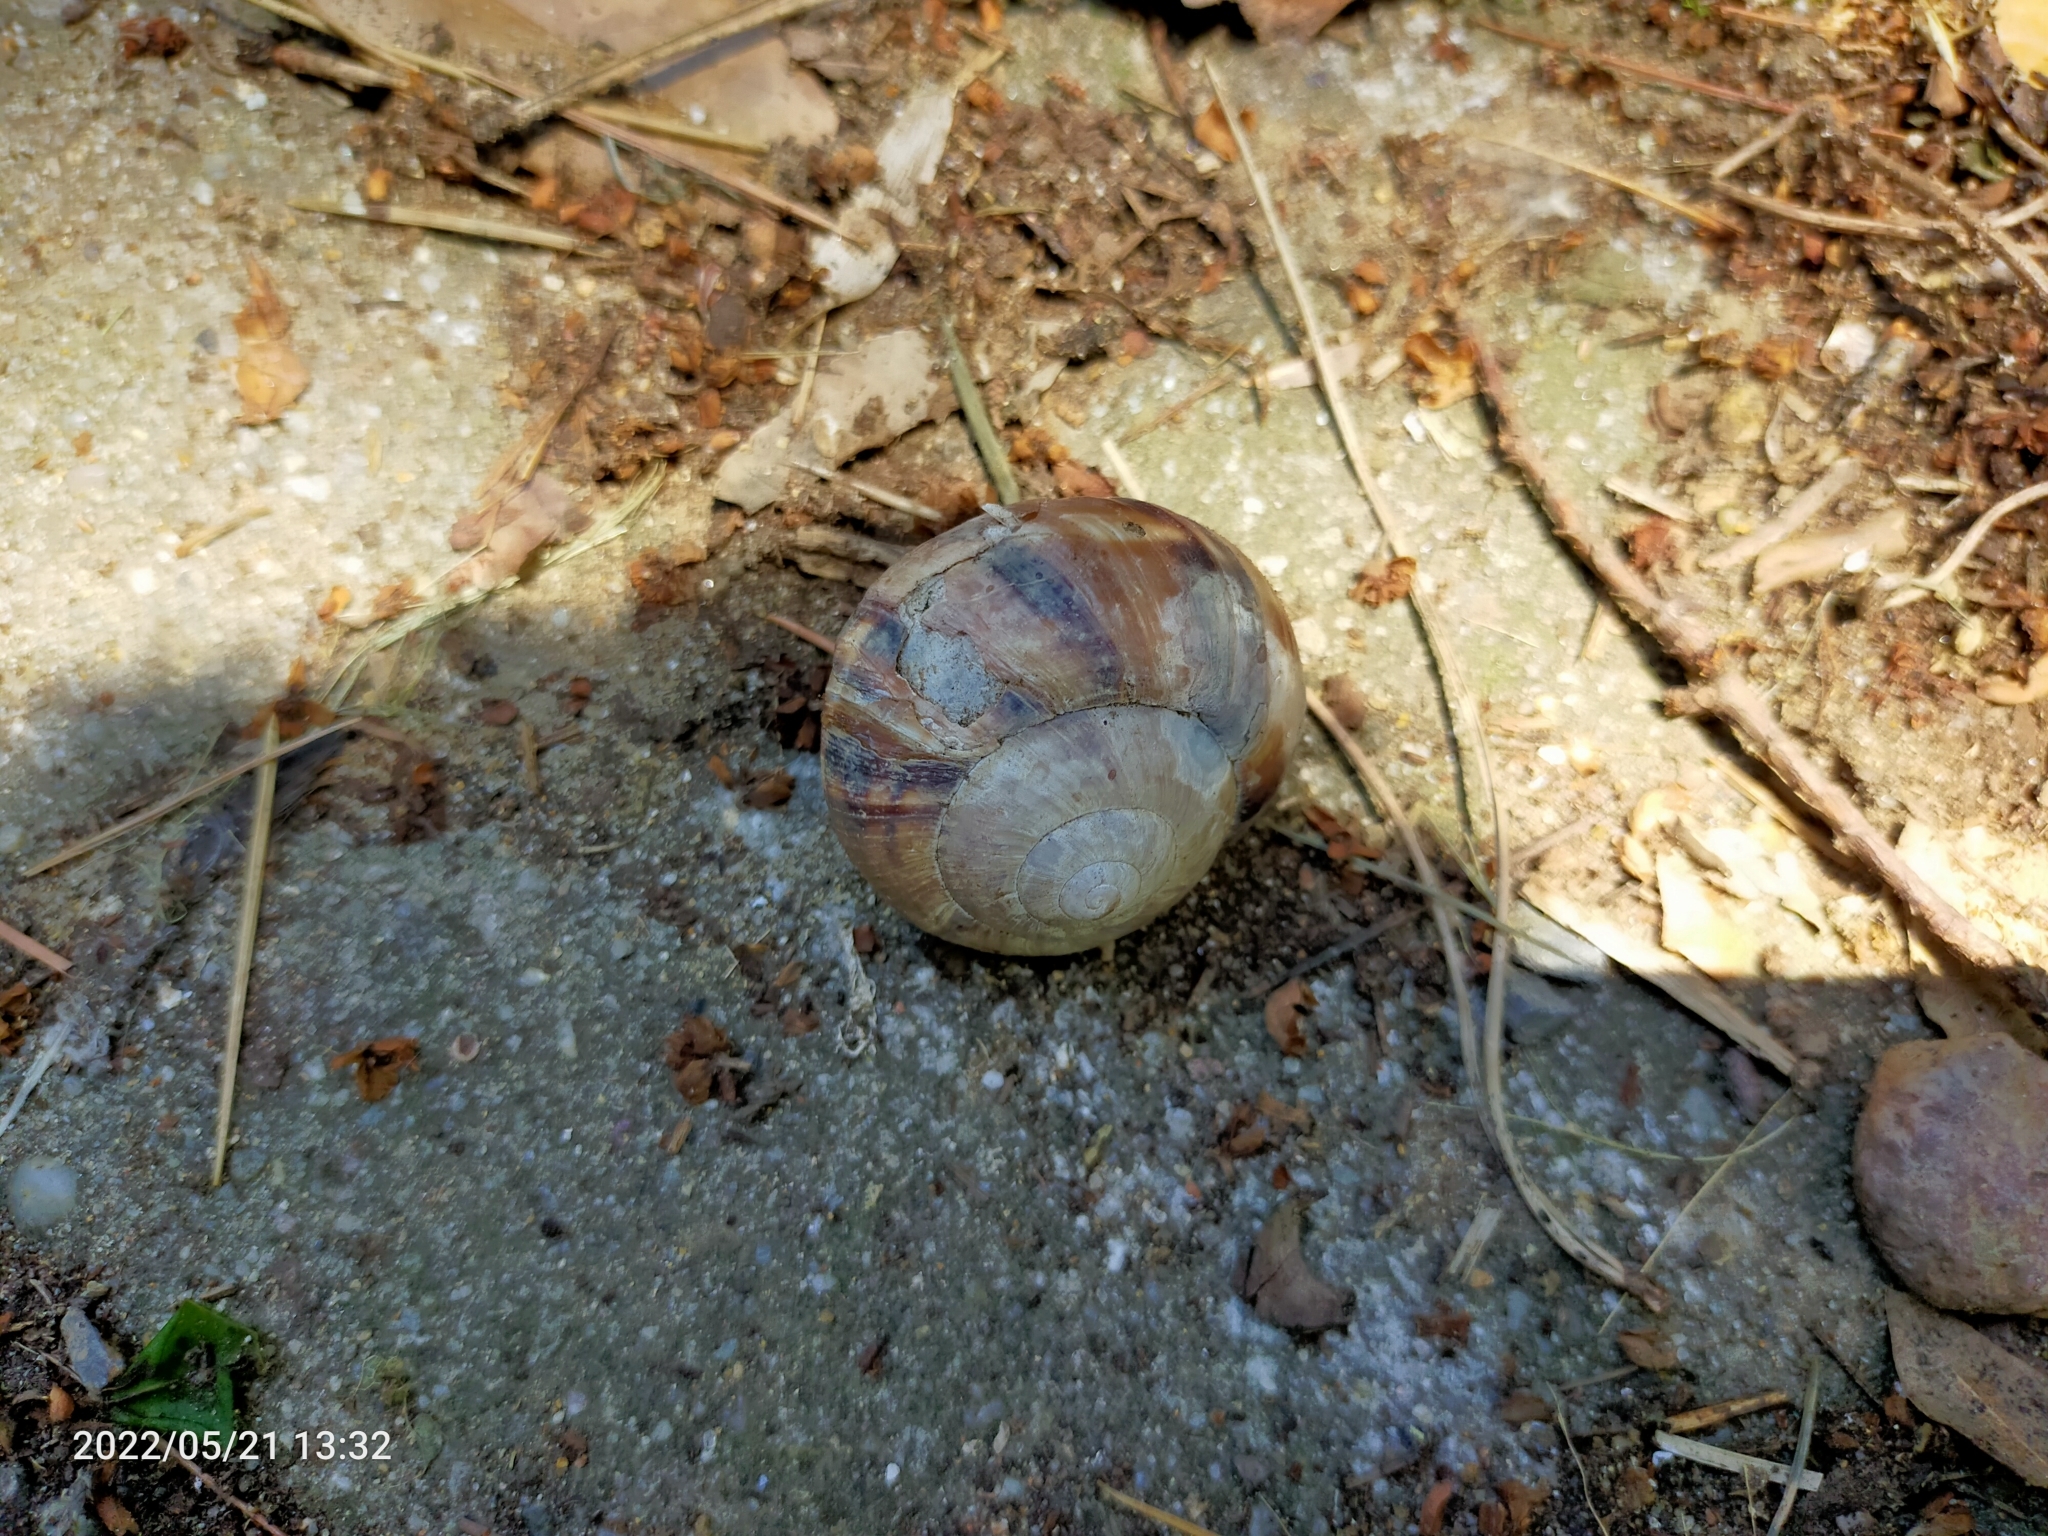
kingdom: Animalia
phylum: Mollusca
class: Gastropoda
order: Stylommatophora
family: Helicidae
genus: Helix
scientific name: Helix lucorum
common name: Turkish snail
